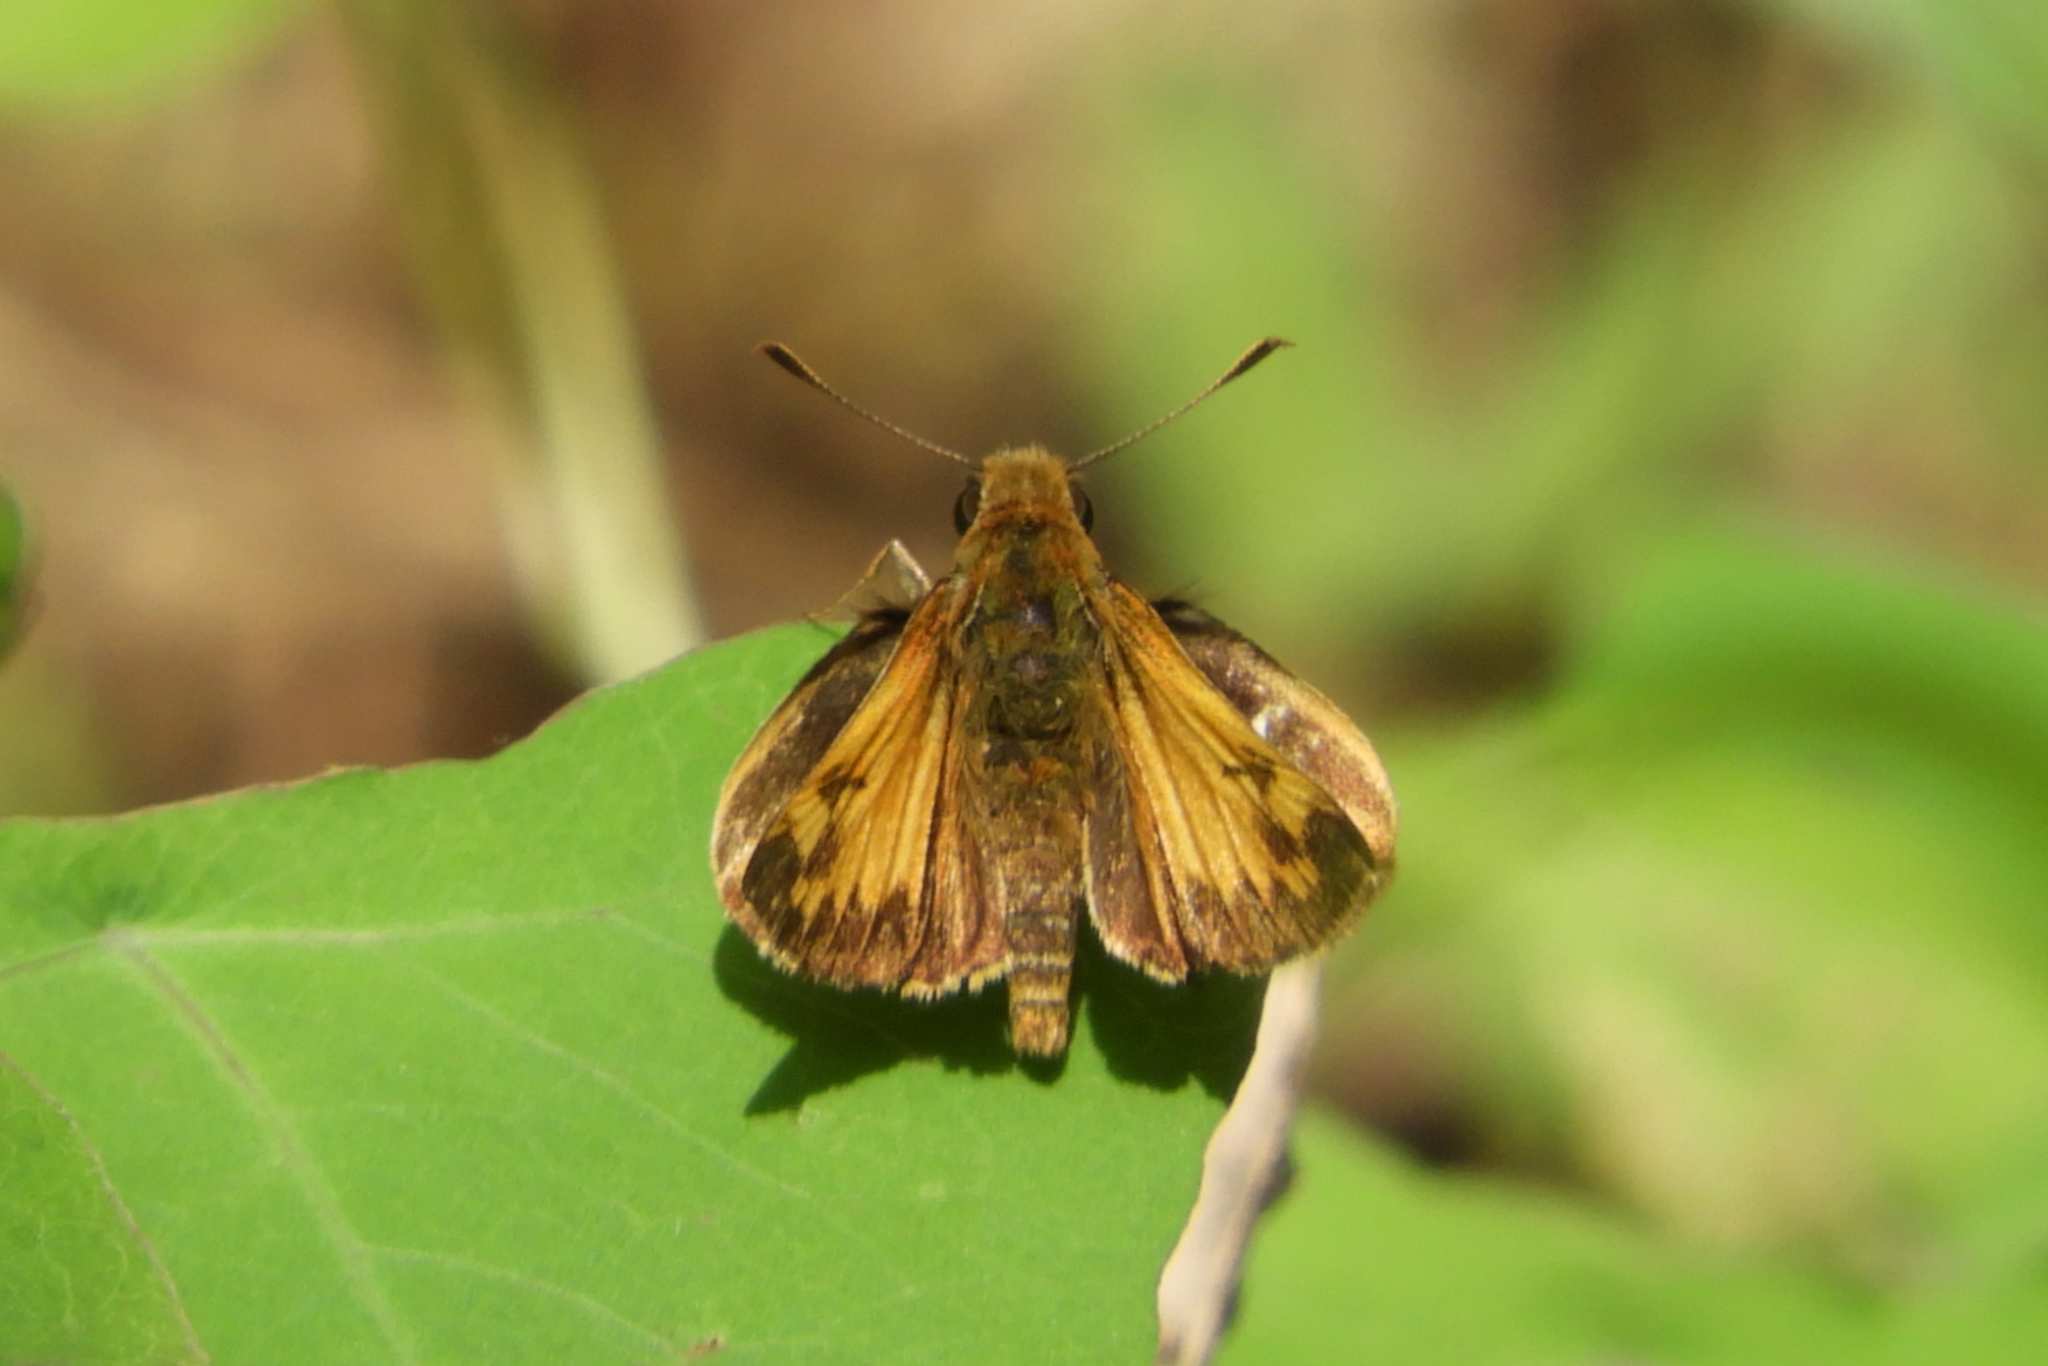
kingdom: Animalia
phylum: Arthropoda
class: Insecta
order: Lepidoptera
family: Hesperiidae
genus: Lon
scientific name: Lon zabulon
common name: Zabulon skipper
